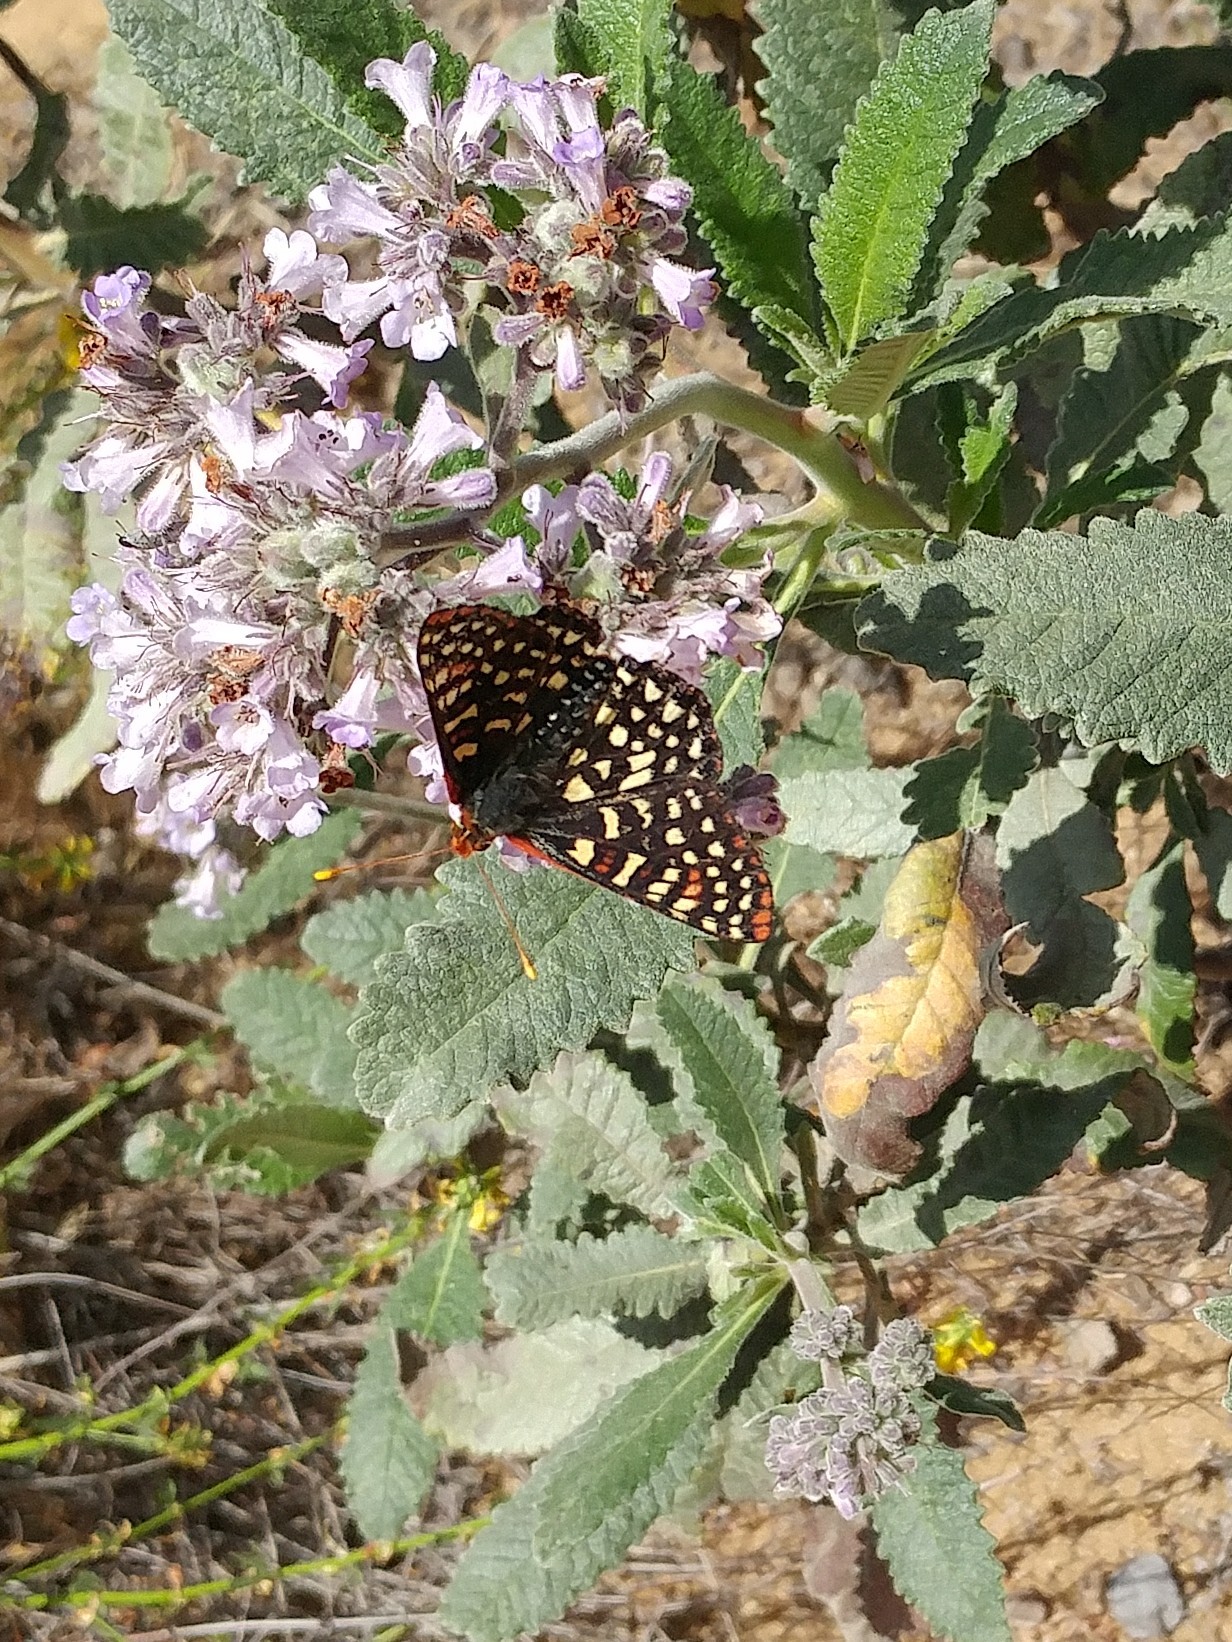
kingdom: Animalia
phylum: Arthropoda
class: Insecta
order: Lepidoptera
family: Nymphalidae
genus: Occidryas
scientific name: Occidryas chalcedona
